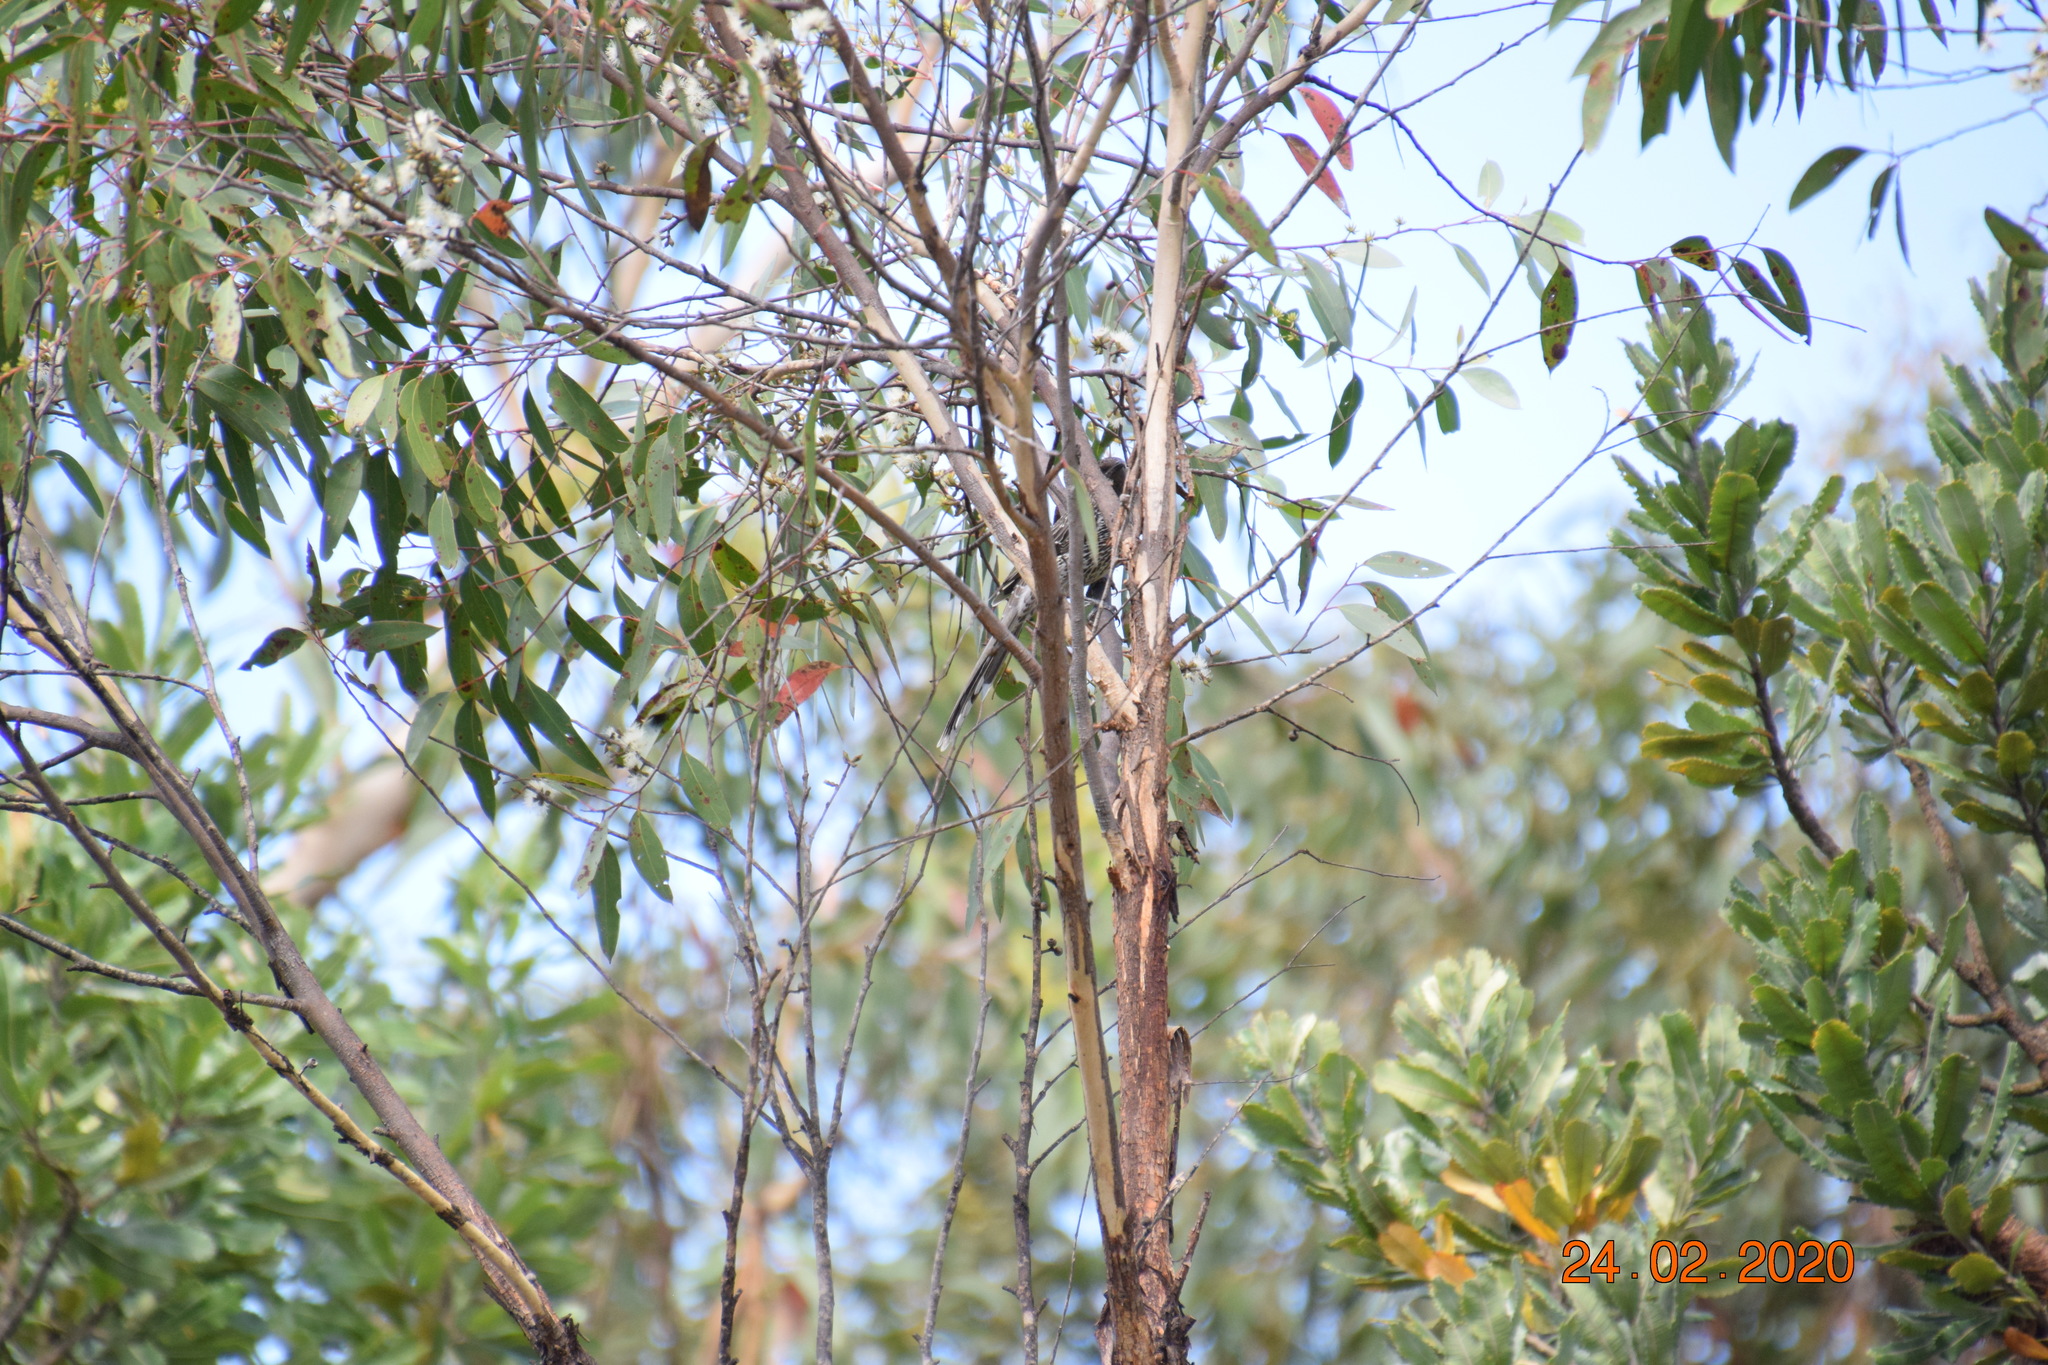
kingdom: Animalia
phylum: Chordata
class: Aves
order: Passeriformes
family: Meliphagidae
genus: Anthochaera
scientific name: Anthochaera chrysoptera
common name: Little wattlebird
